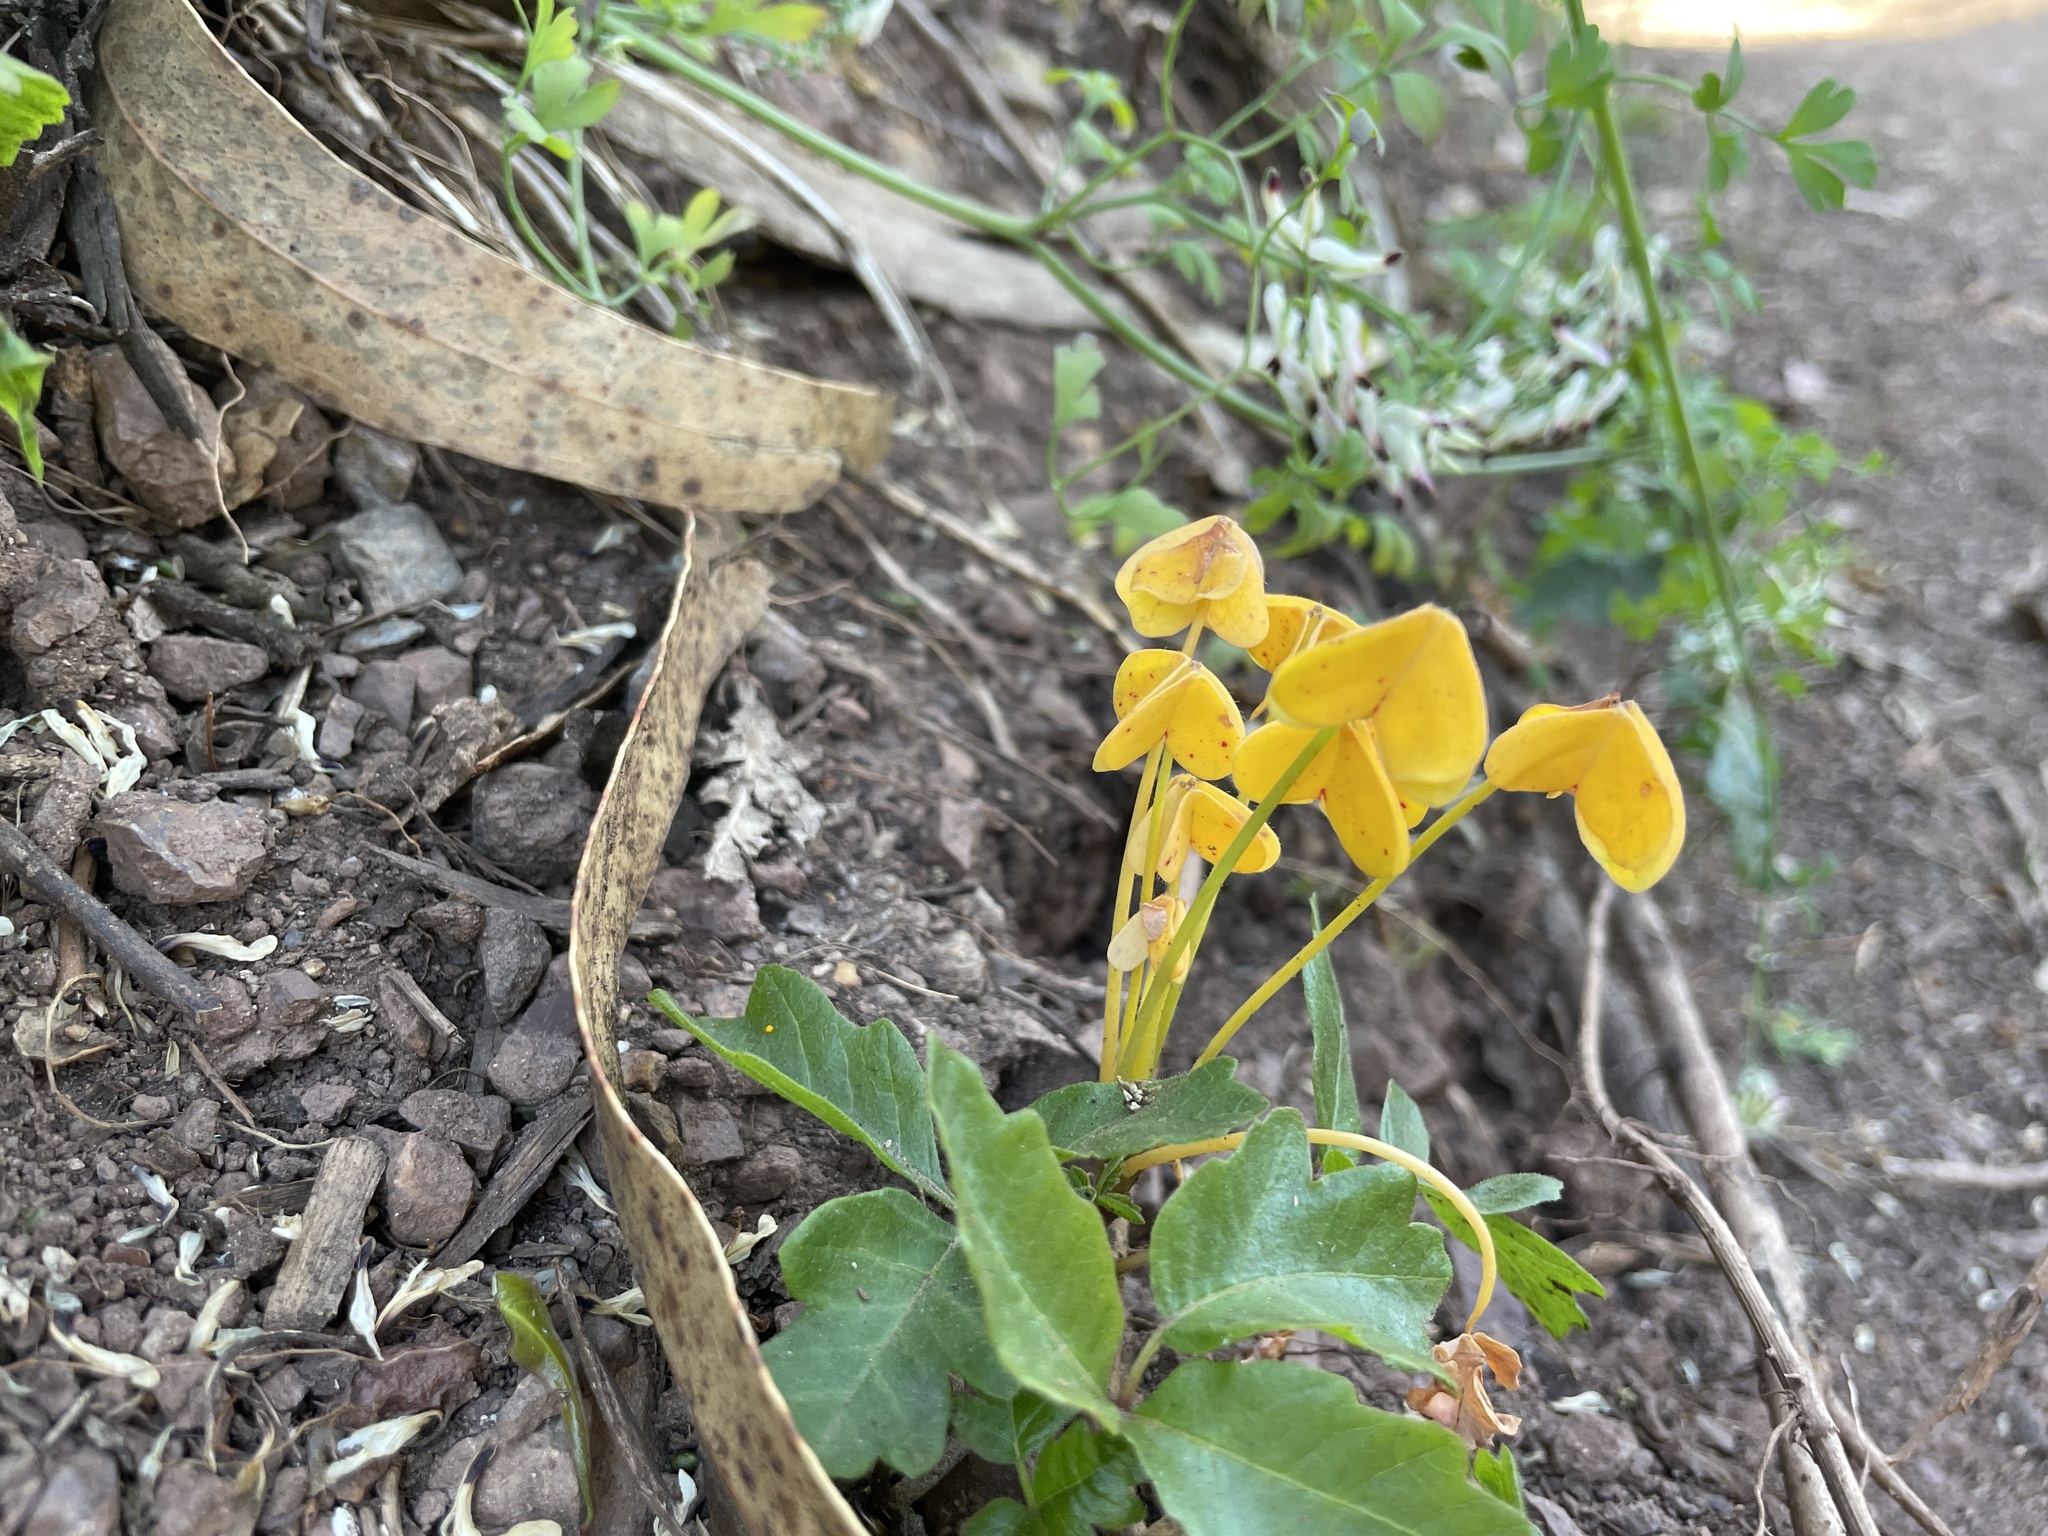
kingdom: Plantae
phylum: Tracheophyta
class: Magnoliopsida
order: Oxalidales
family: Oxalidaceae
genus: Oxalis
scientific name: Oxalis pes-caprae
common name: Bermuda-buttercup
